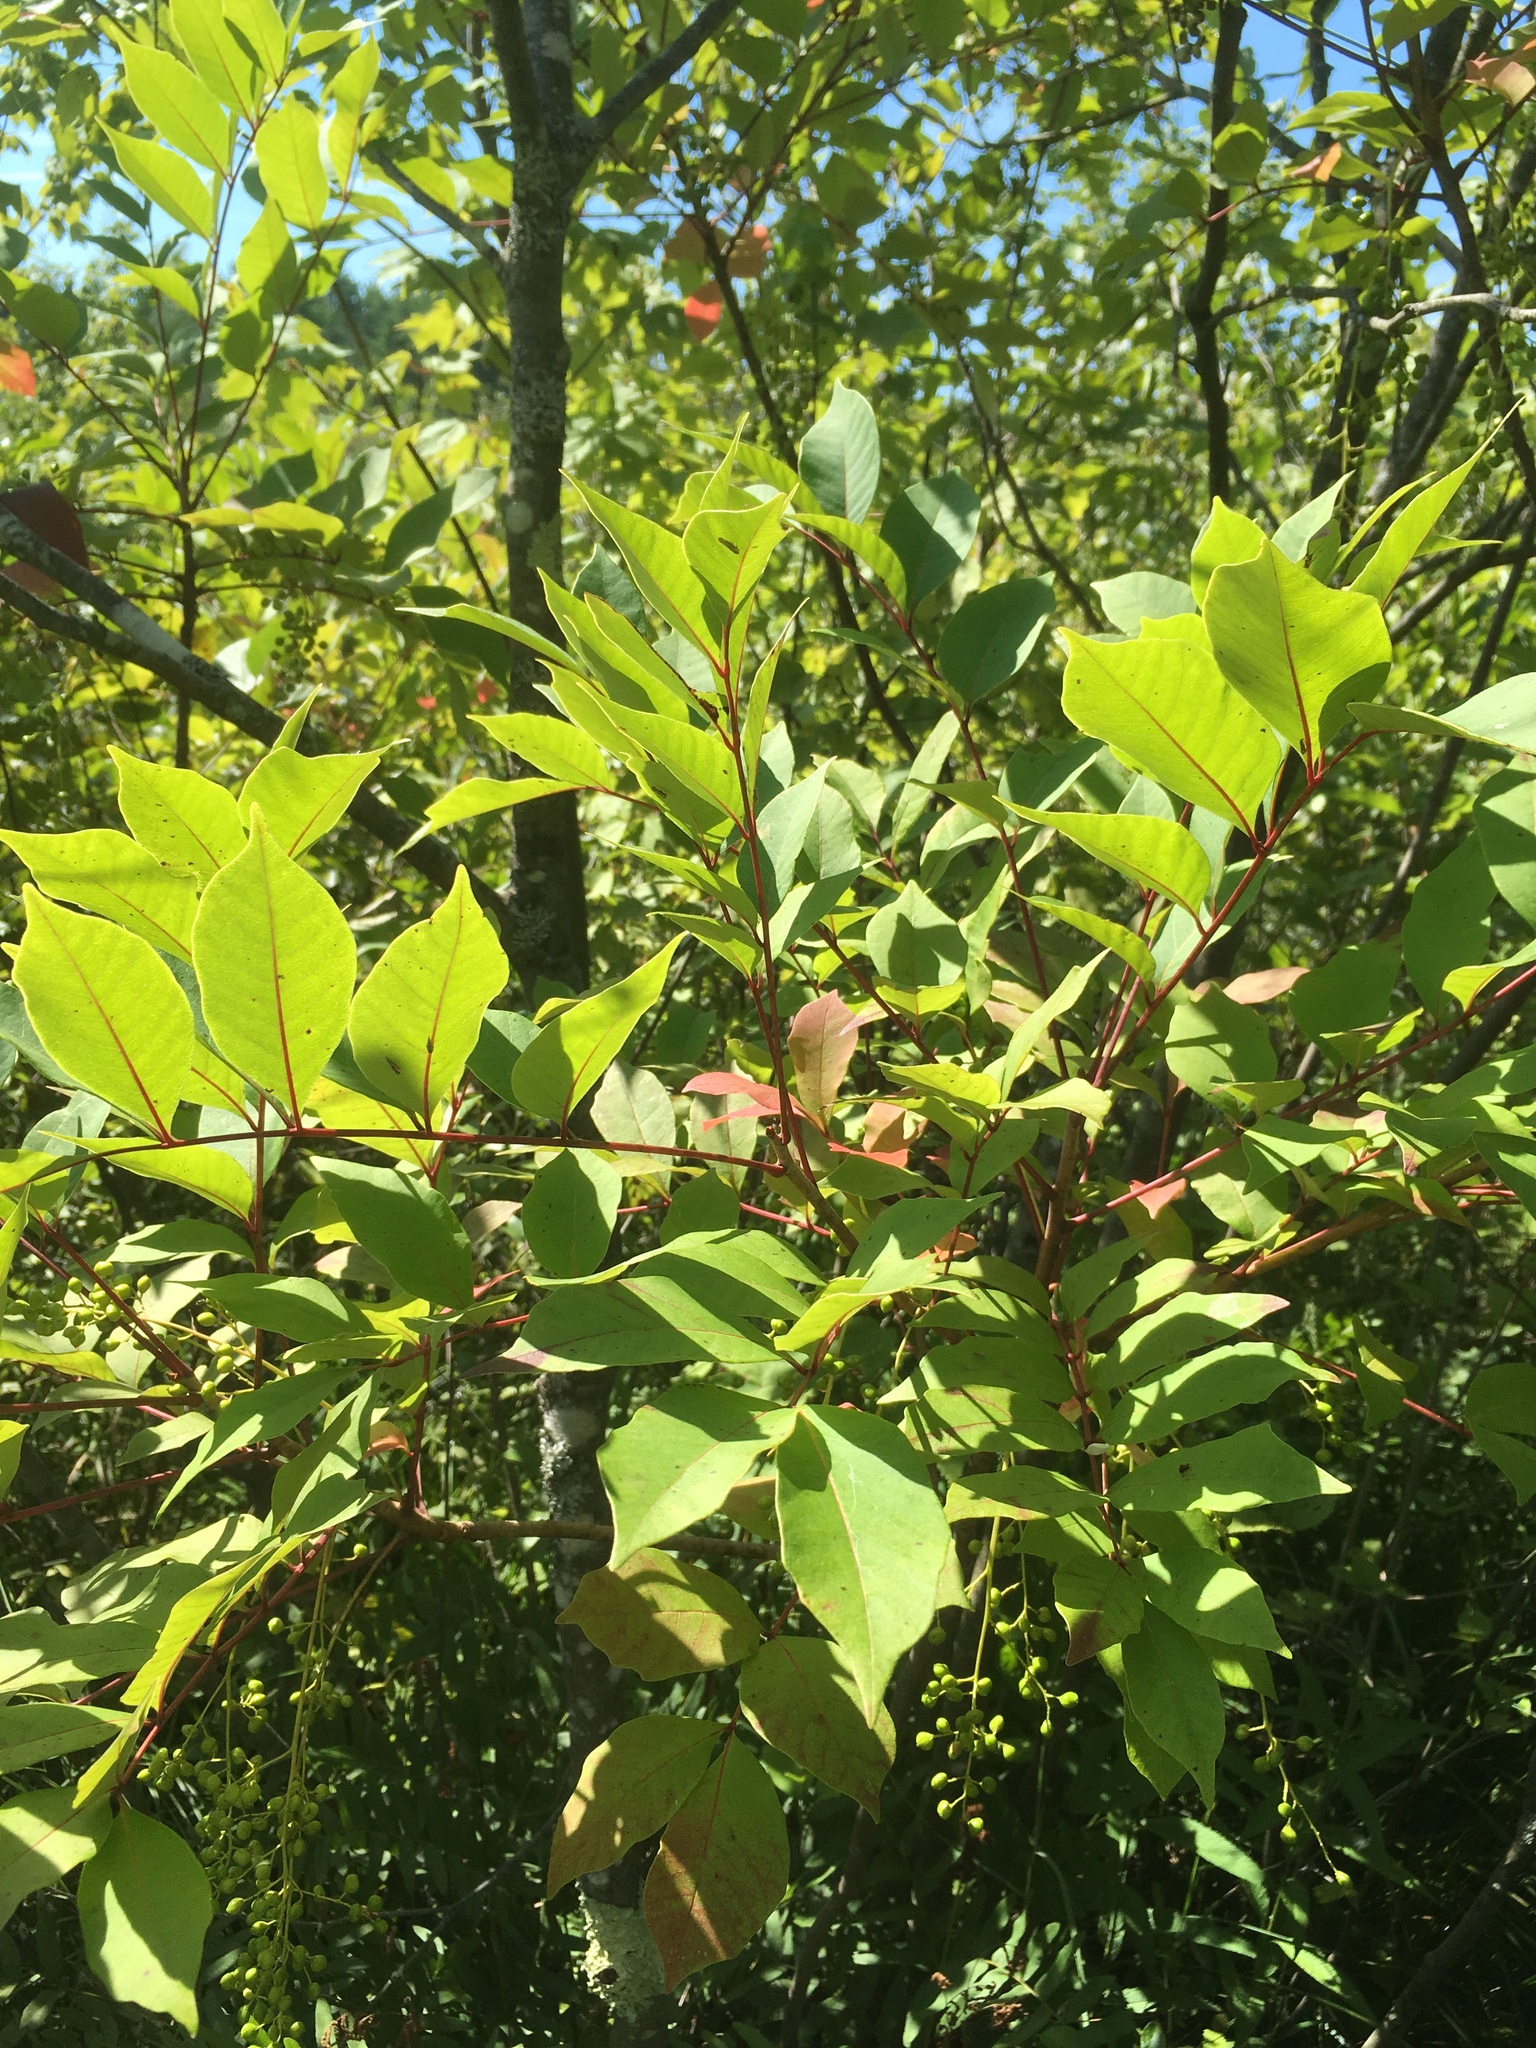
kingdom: Plantae
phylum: Tracheophyta
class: Magnoliopsida
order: Sapindales
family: Anacardiaceae
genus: Toxicodendron
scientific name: Toxicodendron vernix
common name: Poison sumac
